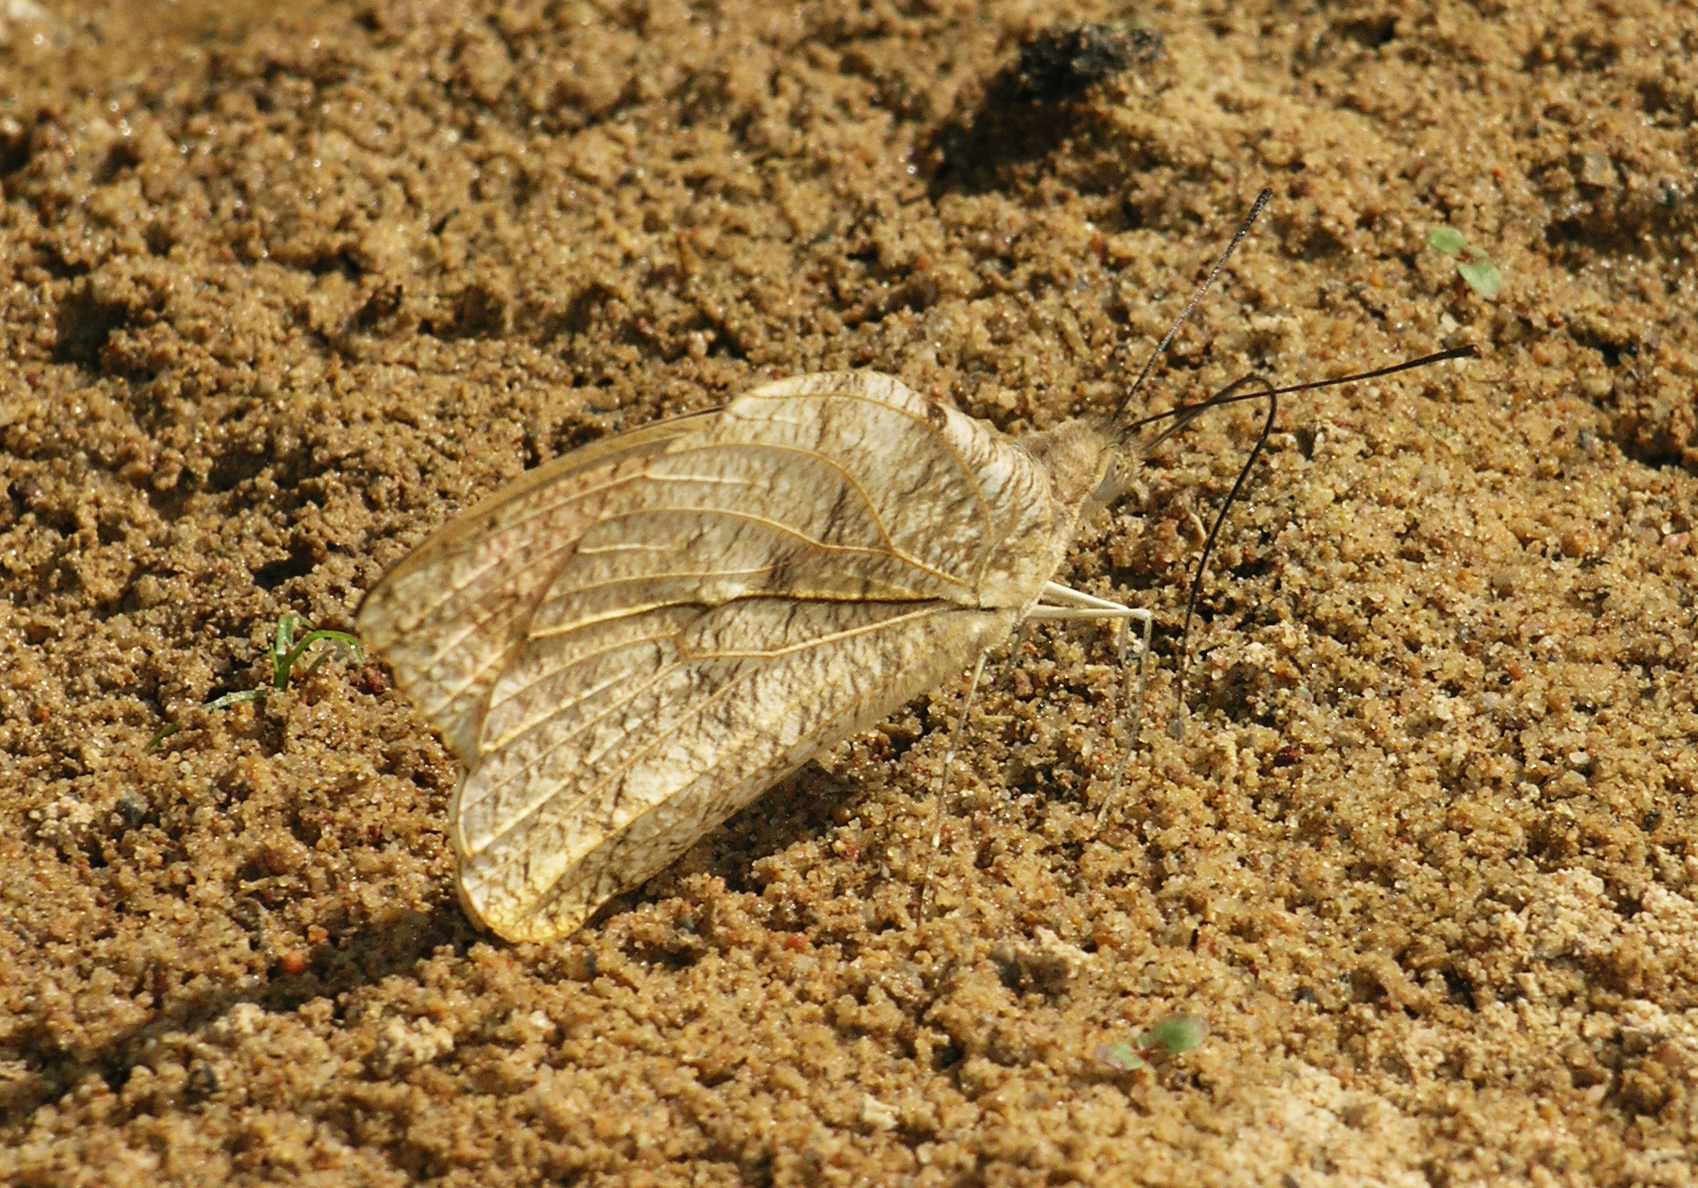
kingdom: Animalia
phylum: Arthropoda
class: Insecta
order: Lepidoptera
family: Pieridae
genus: Hebomoia
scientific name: Hebomoia glaucippe
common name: Great orange tip
